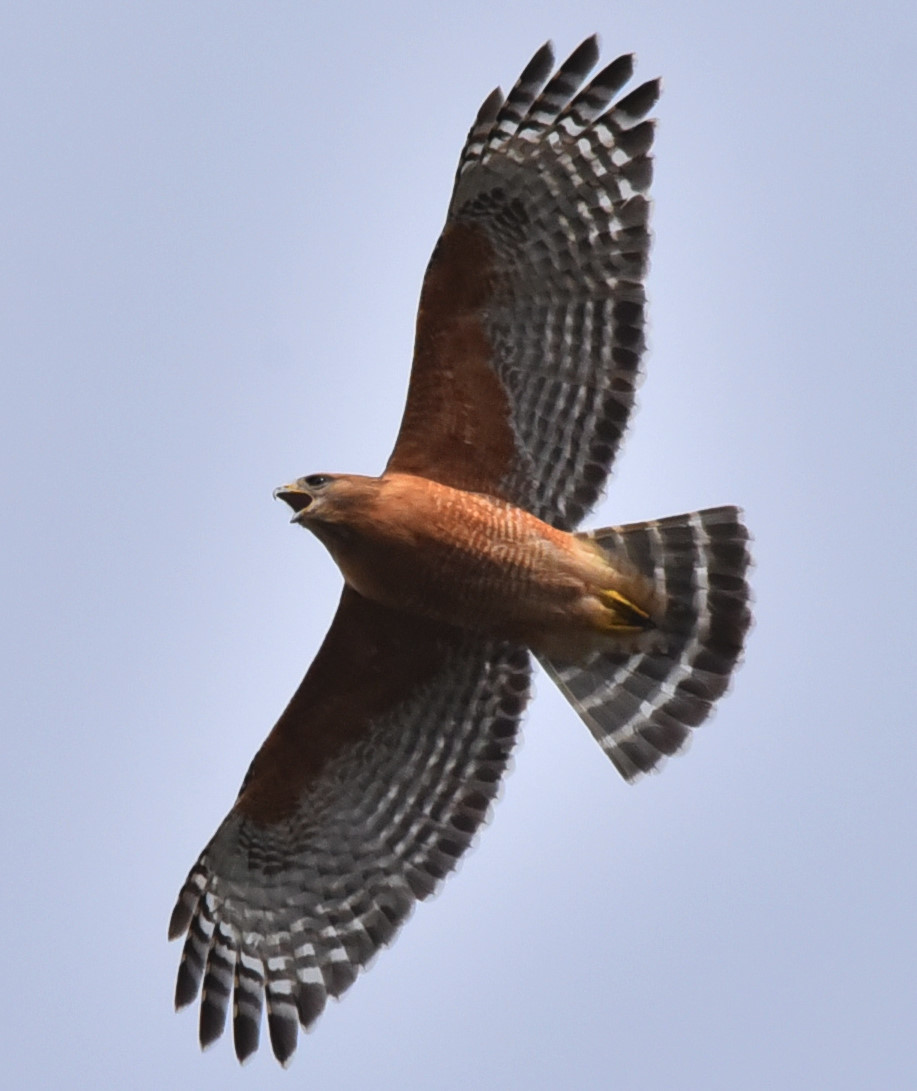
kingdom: Animalia
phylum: Chordata
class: Aves
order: Accipitriformes
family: Accipitridae
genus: Buteo
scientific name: Buteo lineatus
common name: Red-shouldered hawk
